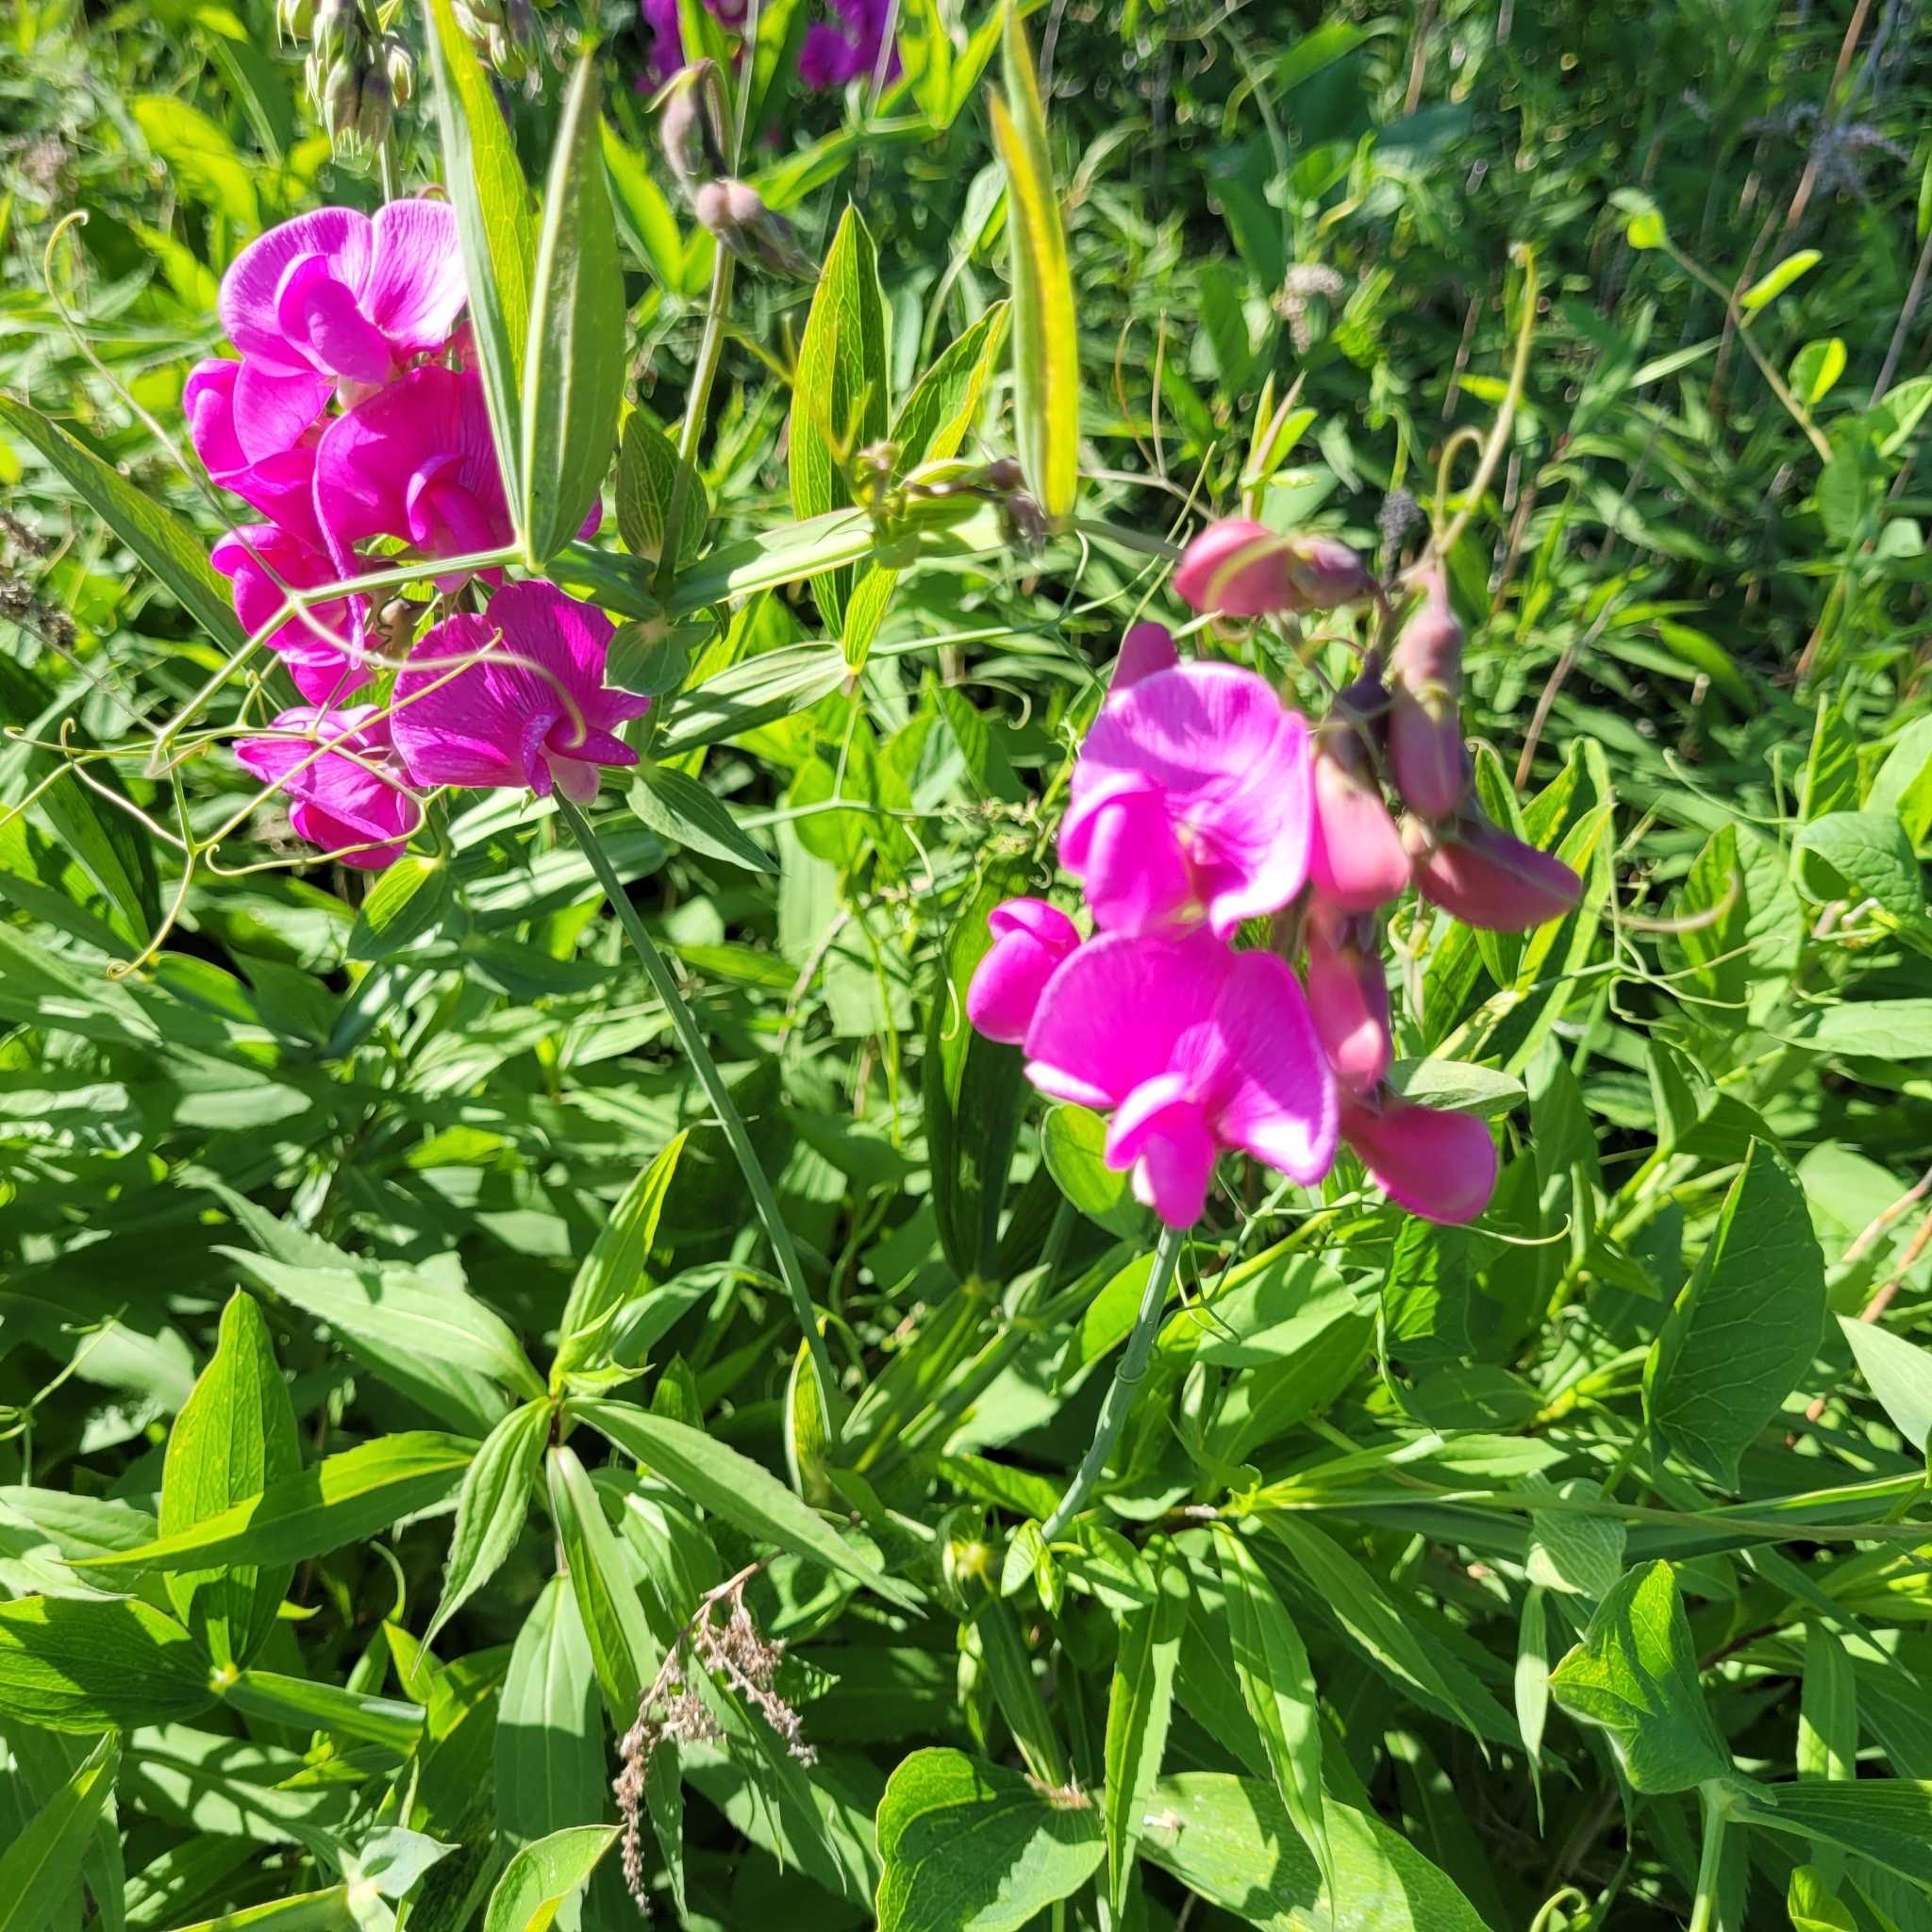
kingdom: Plantae
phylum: Tracheophyta
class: Magnoliopsida
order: Fabales
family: Fabaceae
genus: Lathyrus
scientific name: Lathyrus latifolius
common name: Perennial pea
